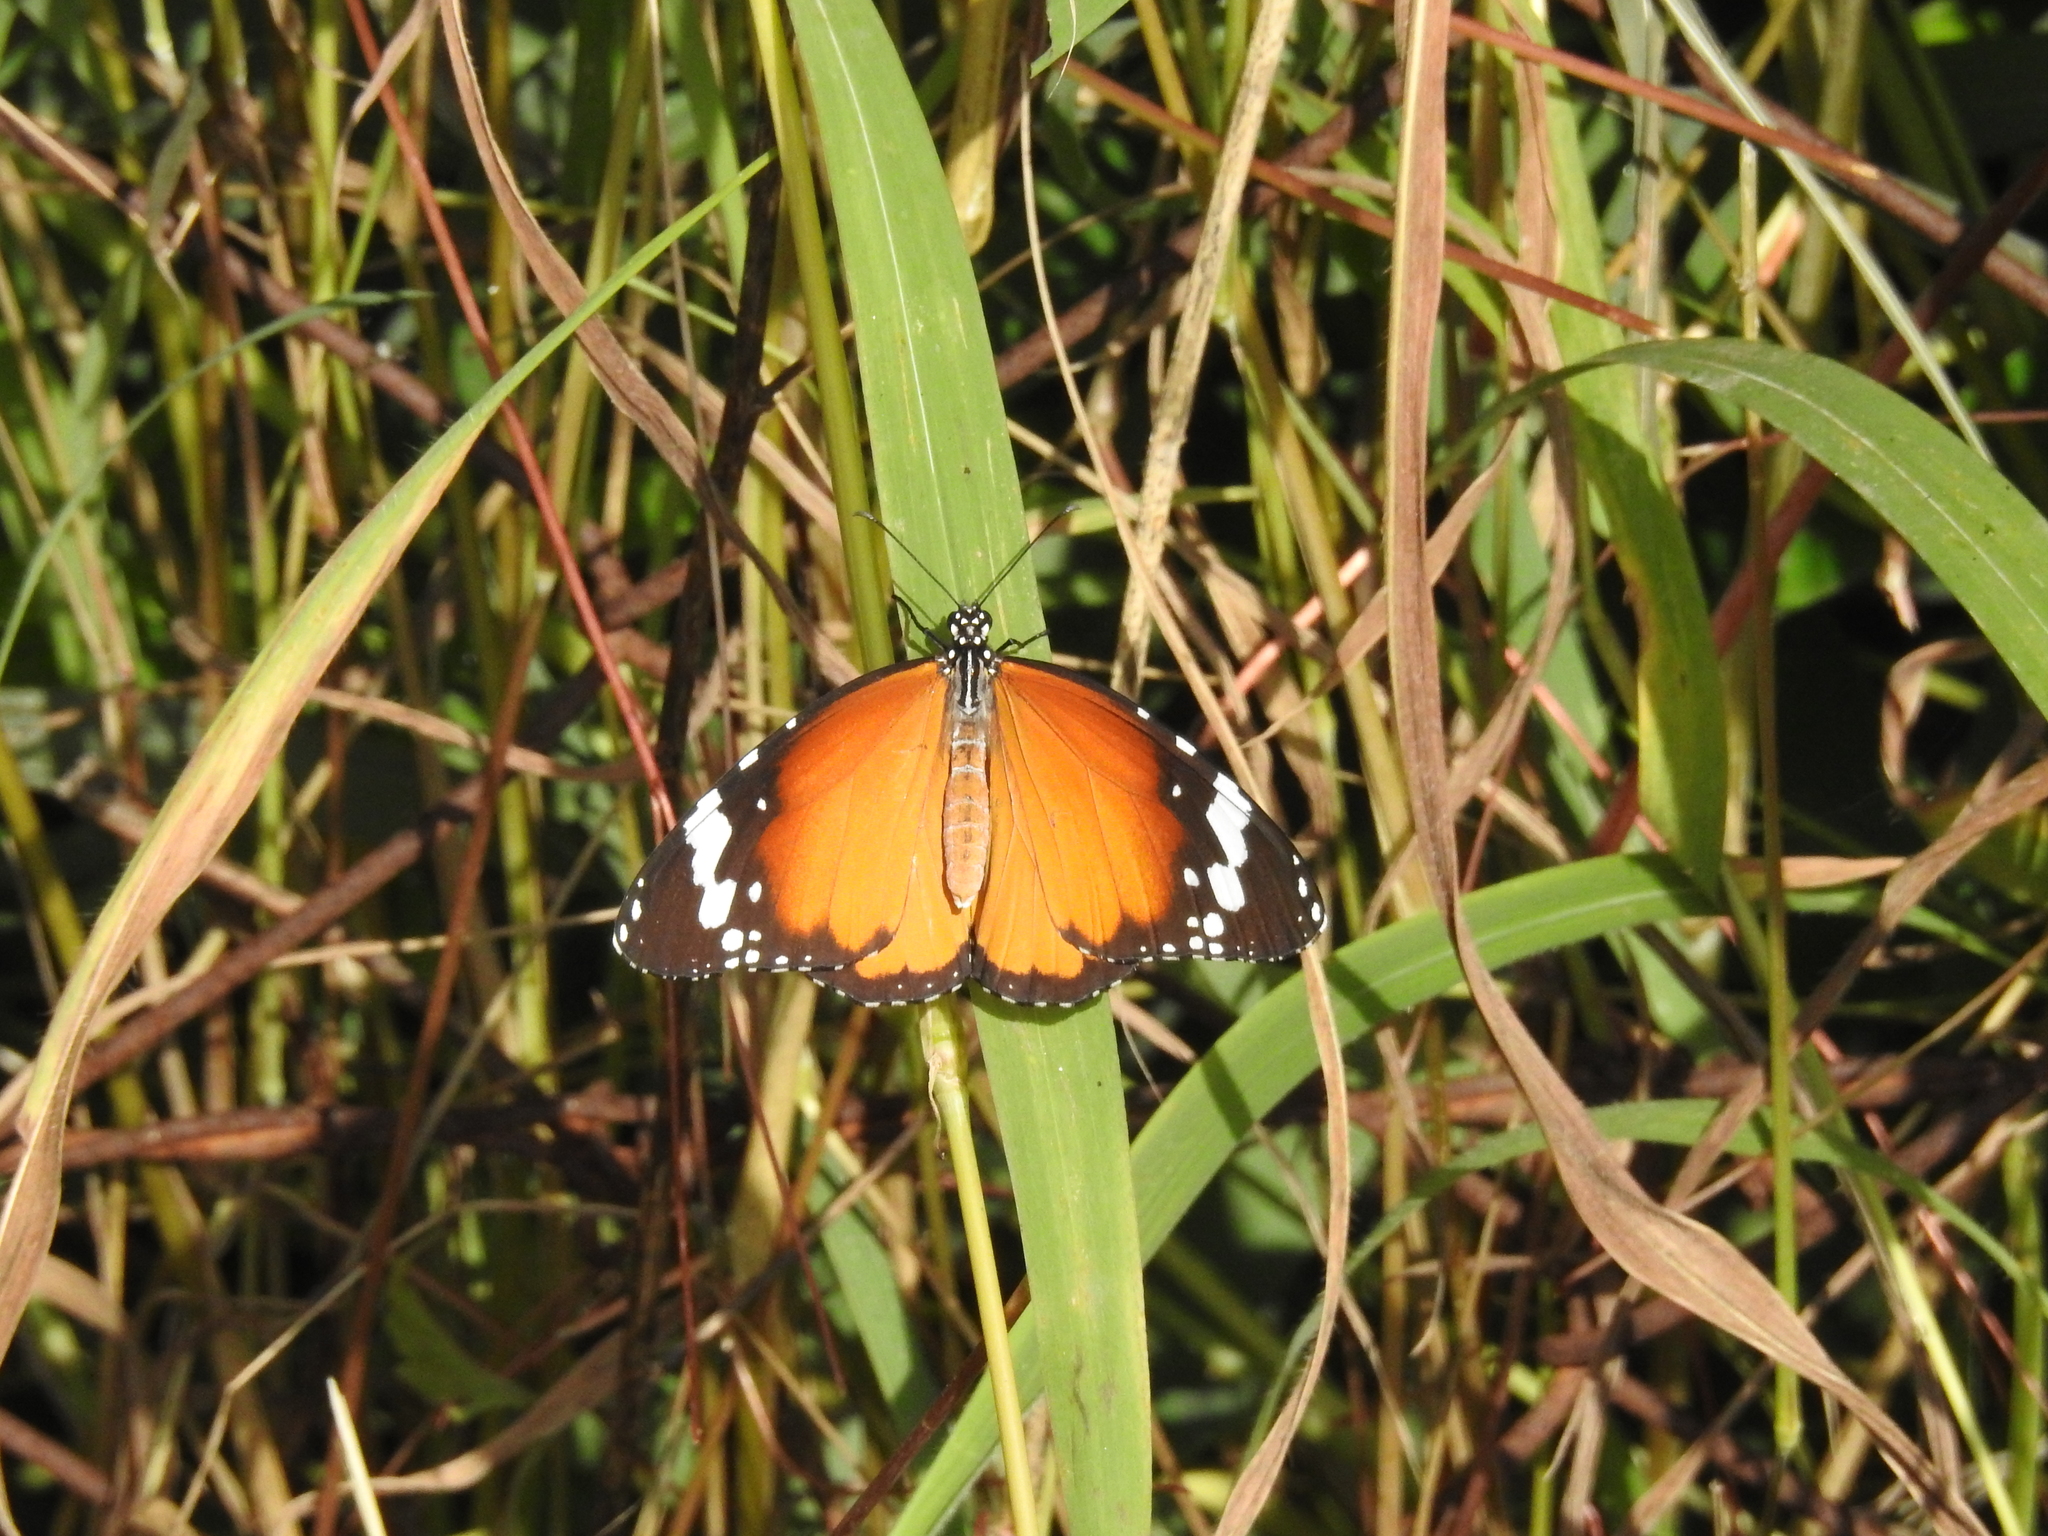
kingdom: Animalia
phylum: Arthropoda
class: Insecta
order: Lepidoptera
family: Nymphalidae
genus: Danaus
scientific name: Danaus chrysippus
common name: Plain tiger
